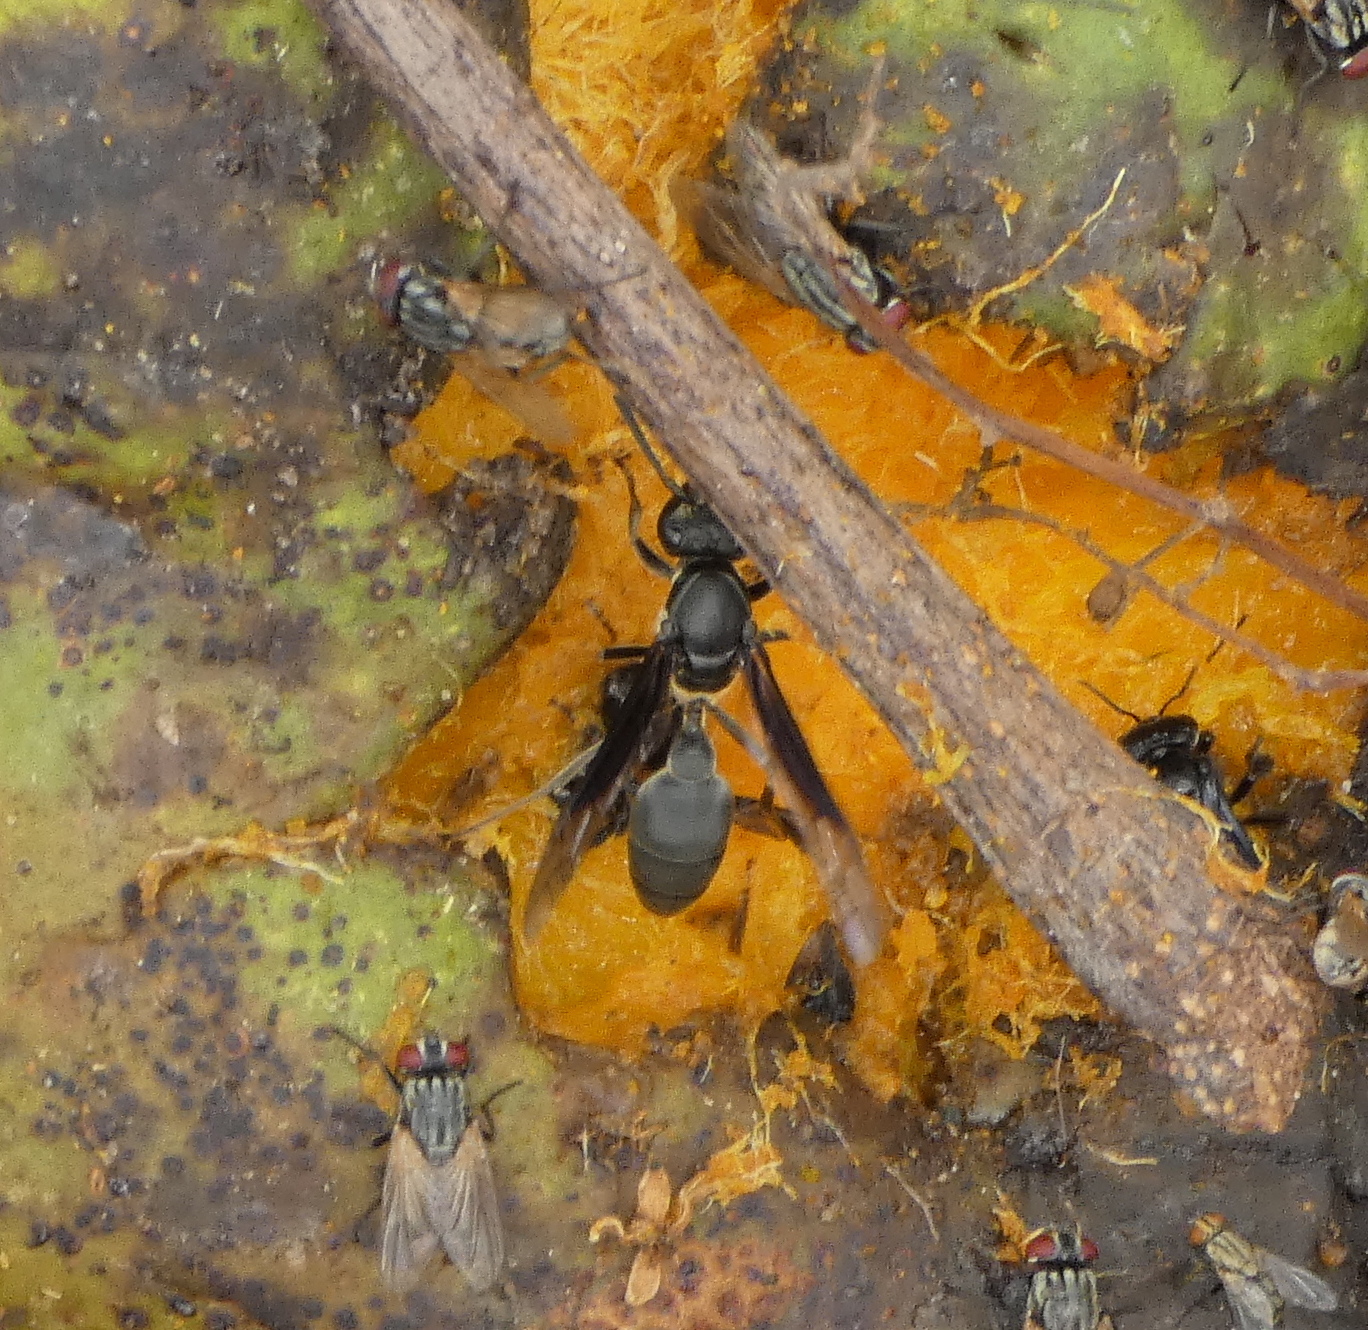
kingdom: Animalia
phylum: Arthropoda
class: Insecta
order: Hymenoptera
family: Eumenidae
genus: Polybia
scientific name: Polybia ignobilis
